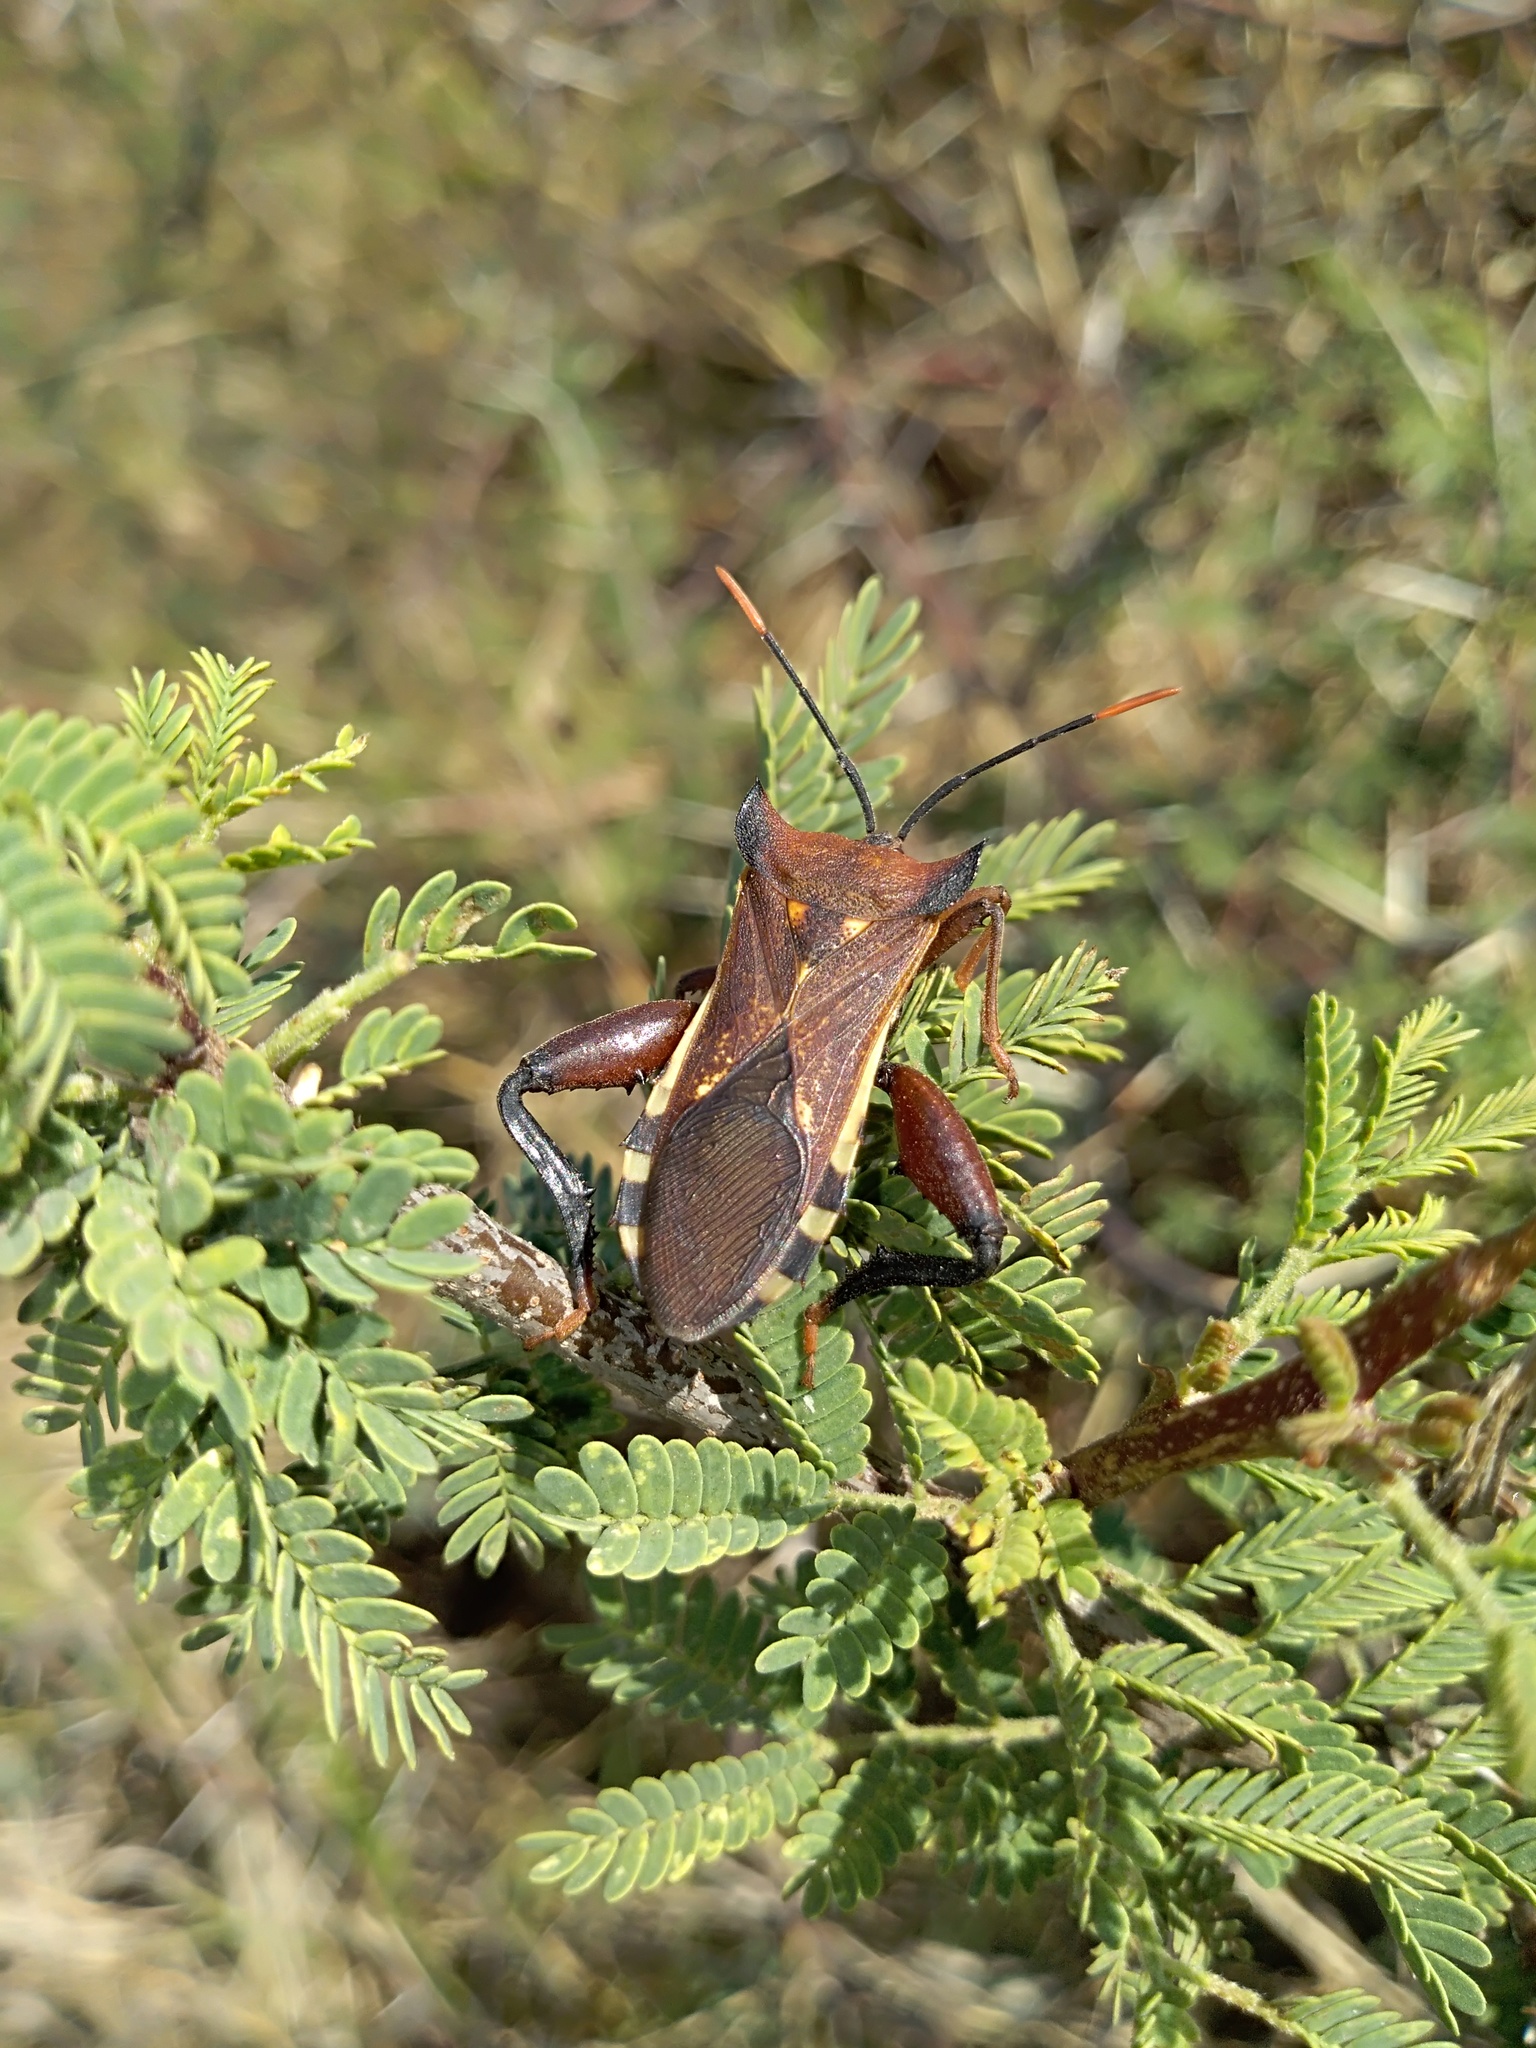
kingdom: Animalia
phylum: Arthropoda
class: Insecta
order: Hemiptera
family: Coreidae
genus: Mozena
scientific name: Mozena lunata
